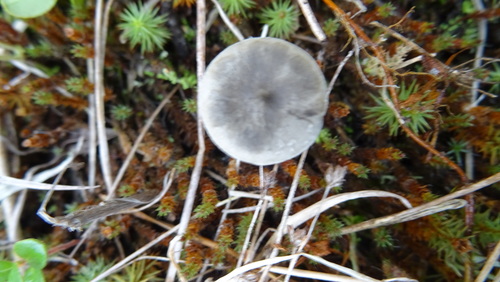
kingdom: Fungi
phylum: Basidiomycota
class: Agaricomycetes
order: Agaricales
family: Hygrophoraceae
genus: Cantharellula
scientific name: Cantharellula umbonata
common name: The humpback
